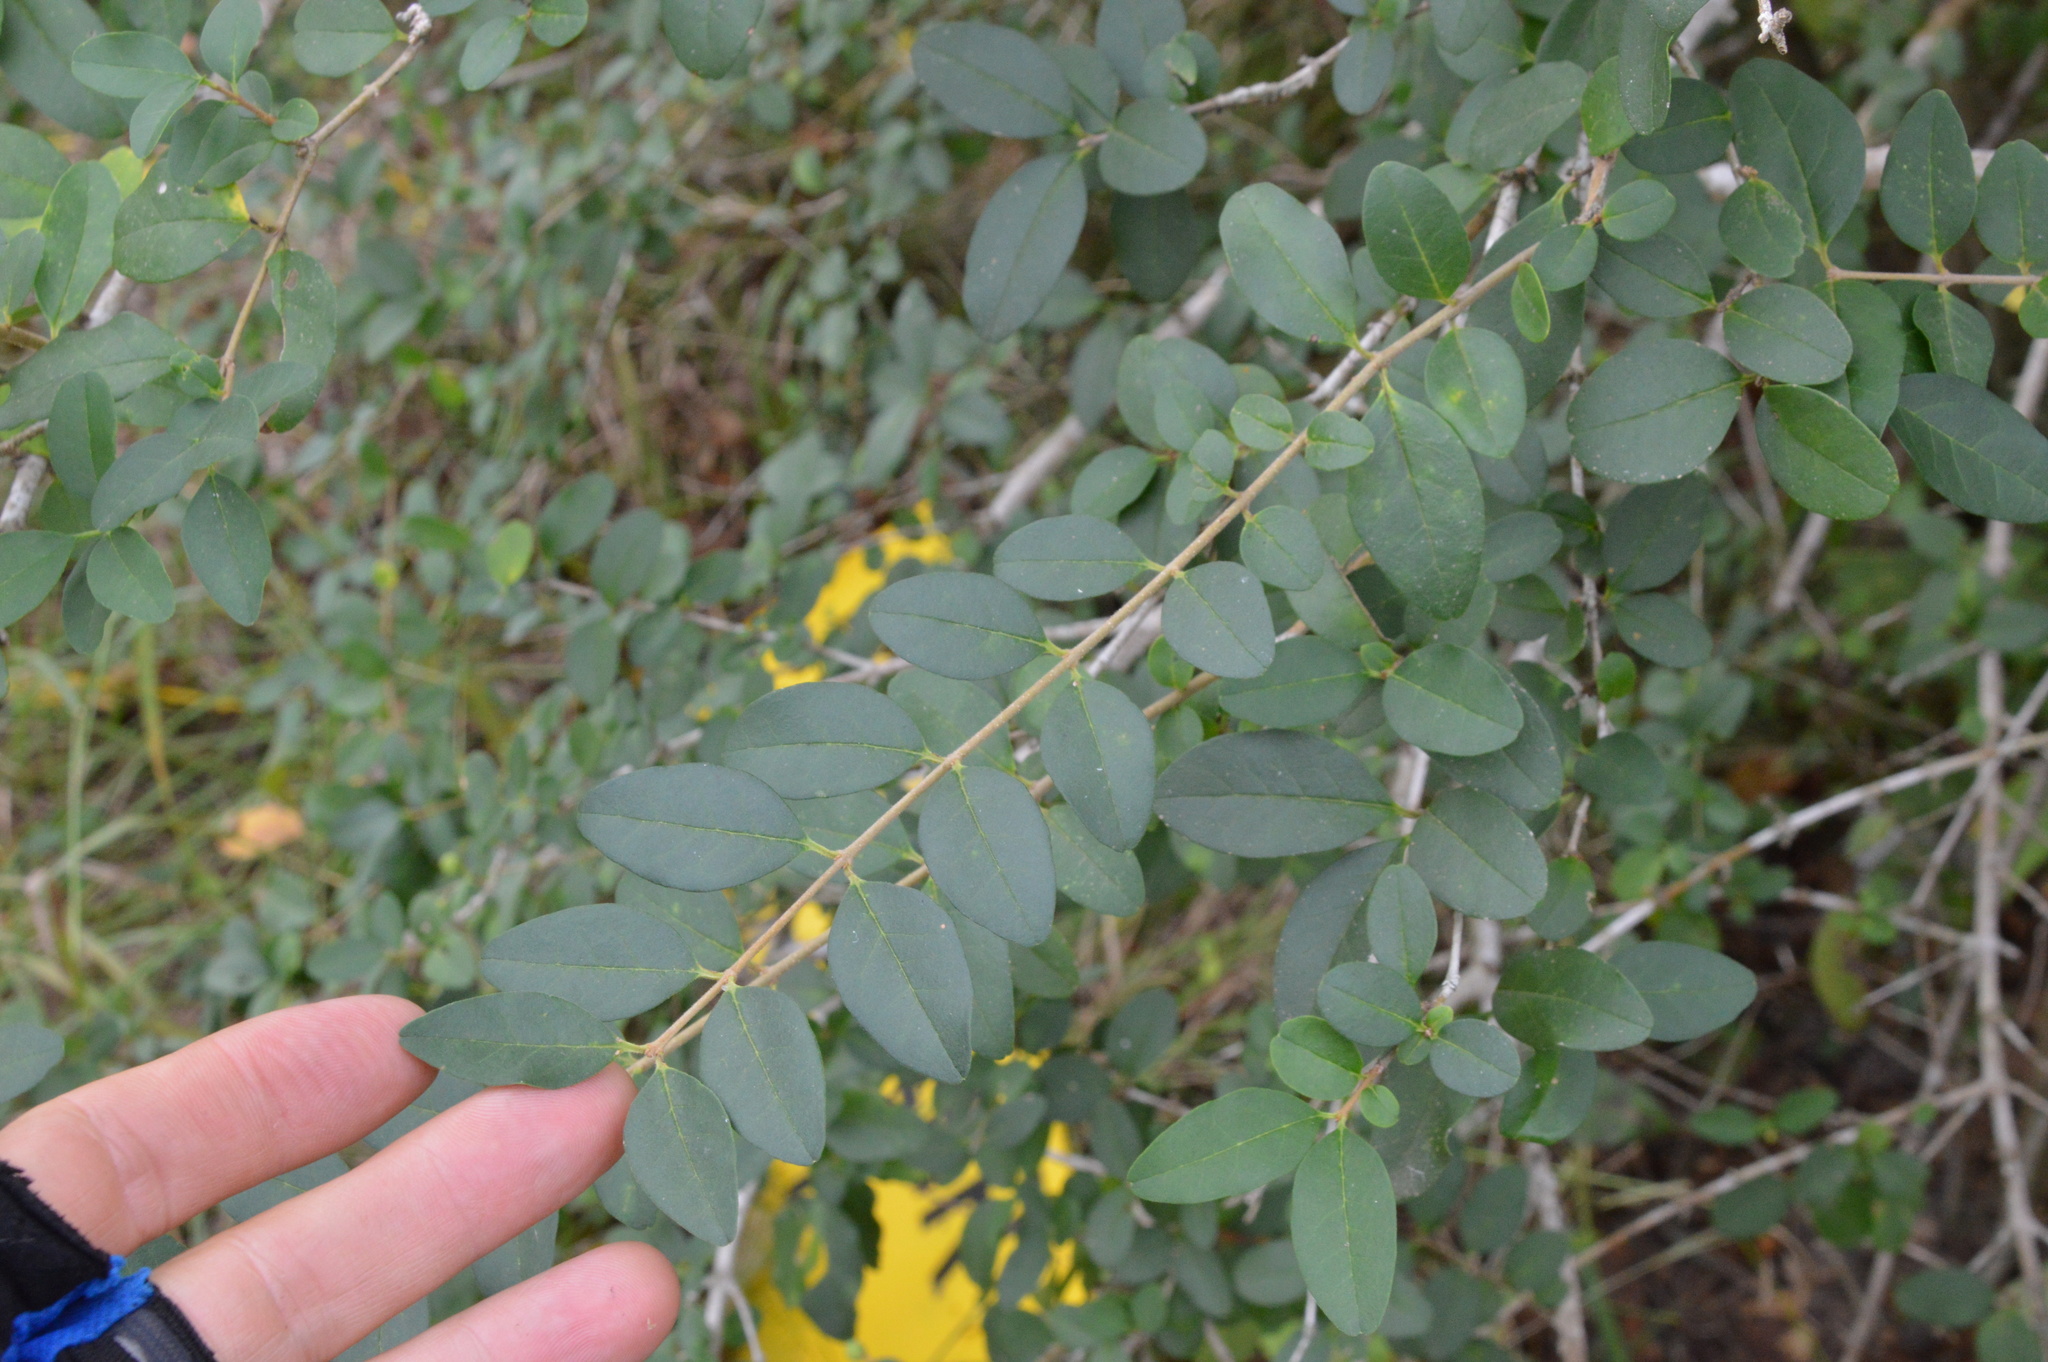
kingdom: Plantae
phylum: Tracheophyta
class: Magnoliopsida
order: Lamiales
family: Oleaceae
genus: Ligustrum
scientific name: Ligustrum sinense
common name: Chinese privet
